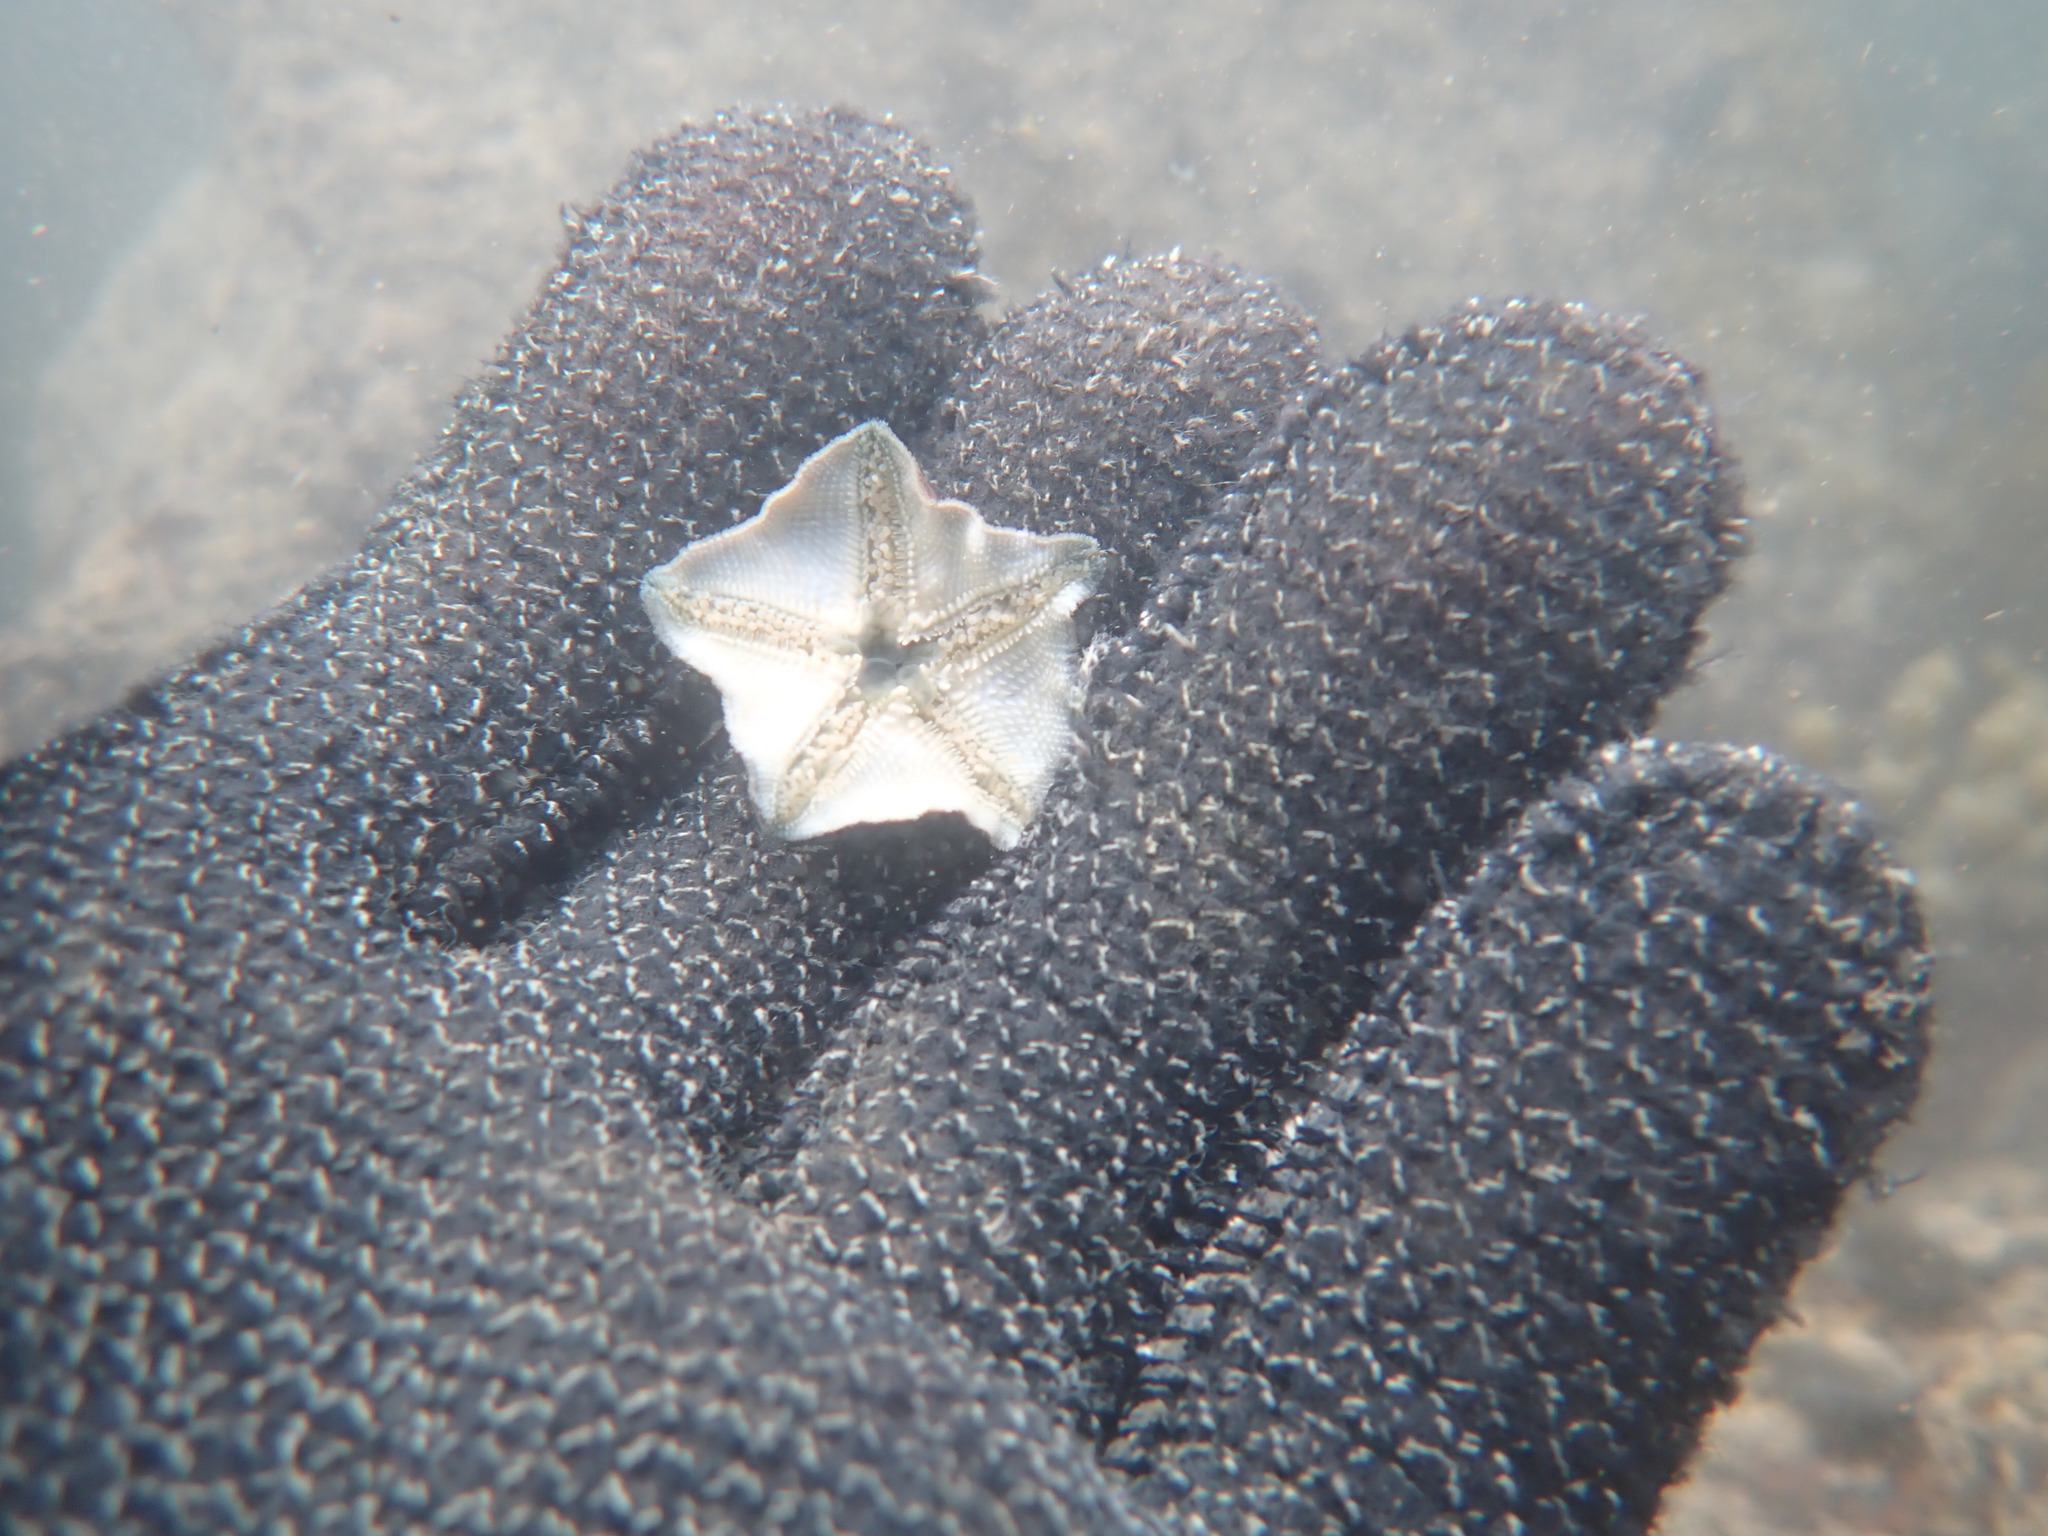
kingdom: Animalia
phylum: Echinodermata
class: Asteroidea
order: Valvatida
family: Asterinidae
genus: Patiriella
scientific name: Patiriella regularis
